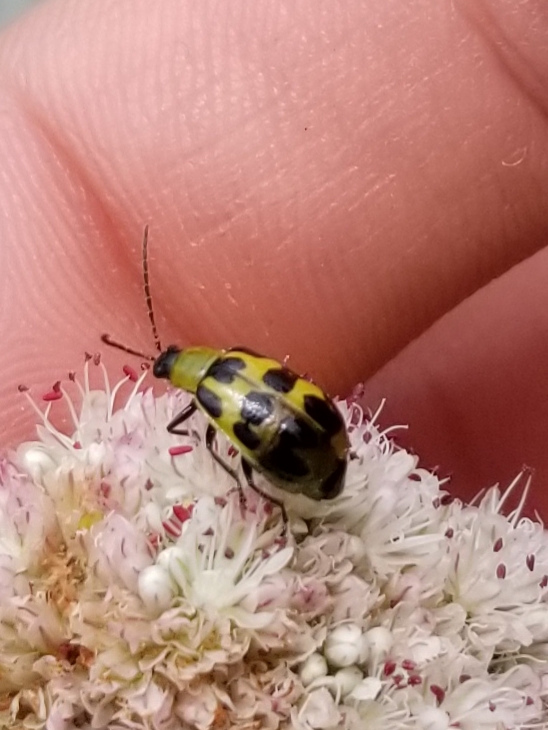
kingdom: Animalia
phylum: Arthropoda
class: Insecta
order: Coleoptera
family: Chrysomelidae
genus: Diabrotica
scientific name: Diabrotica undecimpunctata
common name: Spotted cucumber beetle
